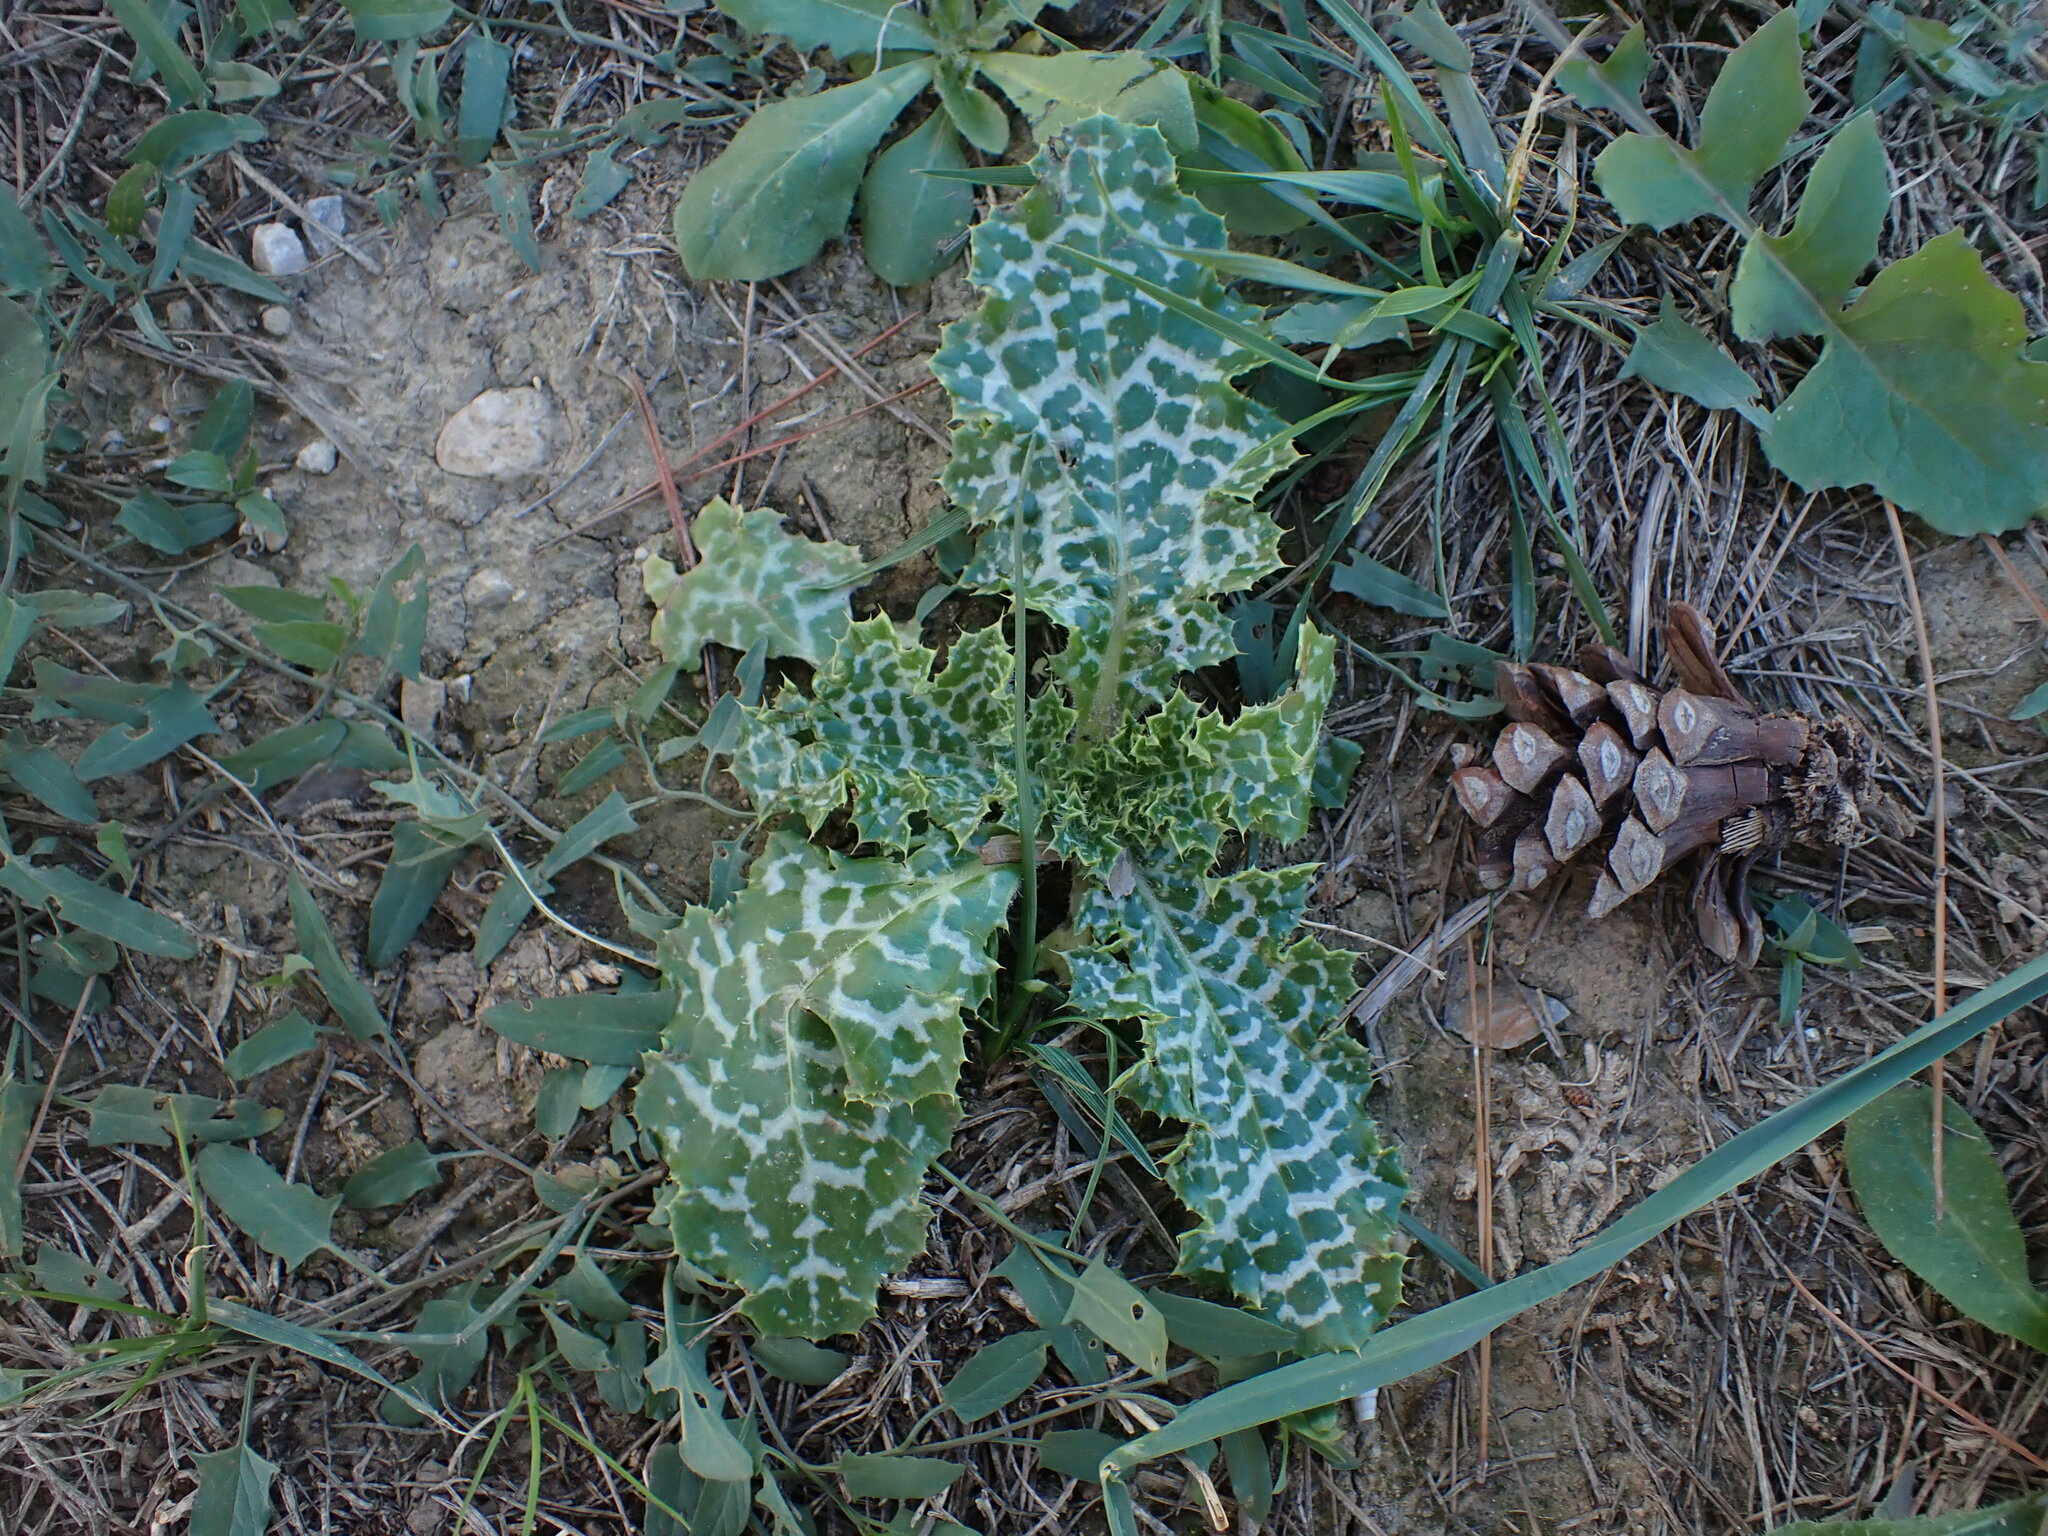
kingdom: Plantae
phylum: Tracheophyta
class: Magnoliopsida
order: Asterales
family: Asteraceae
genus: Silybum
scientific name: Silybum marianum
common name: Milk thistle
